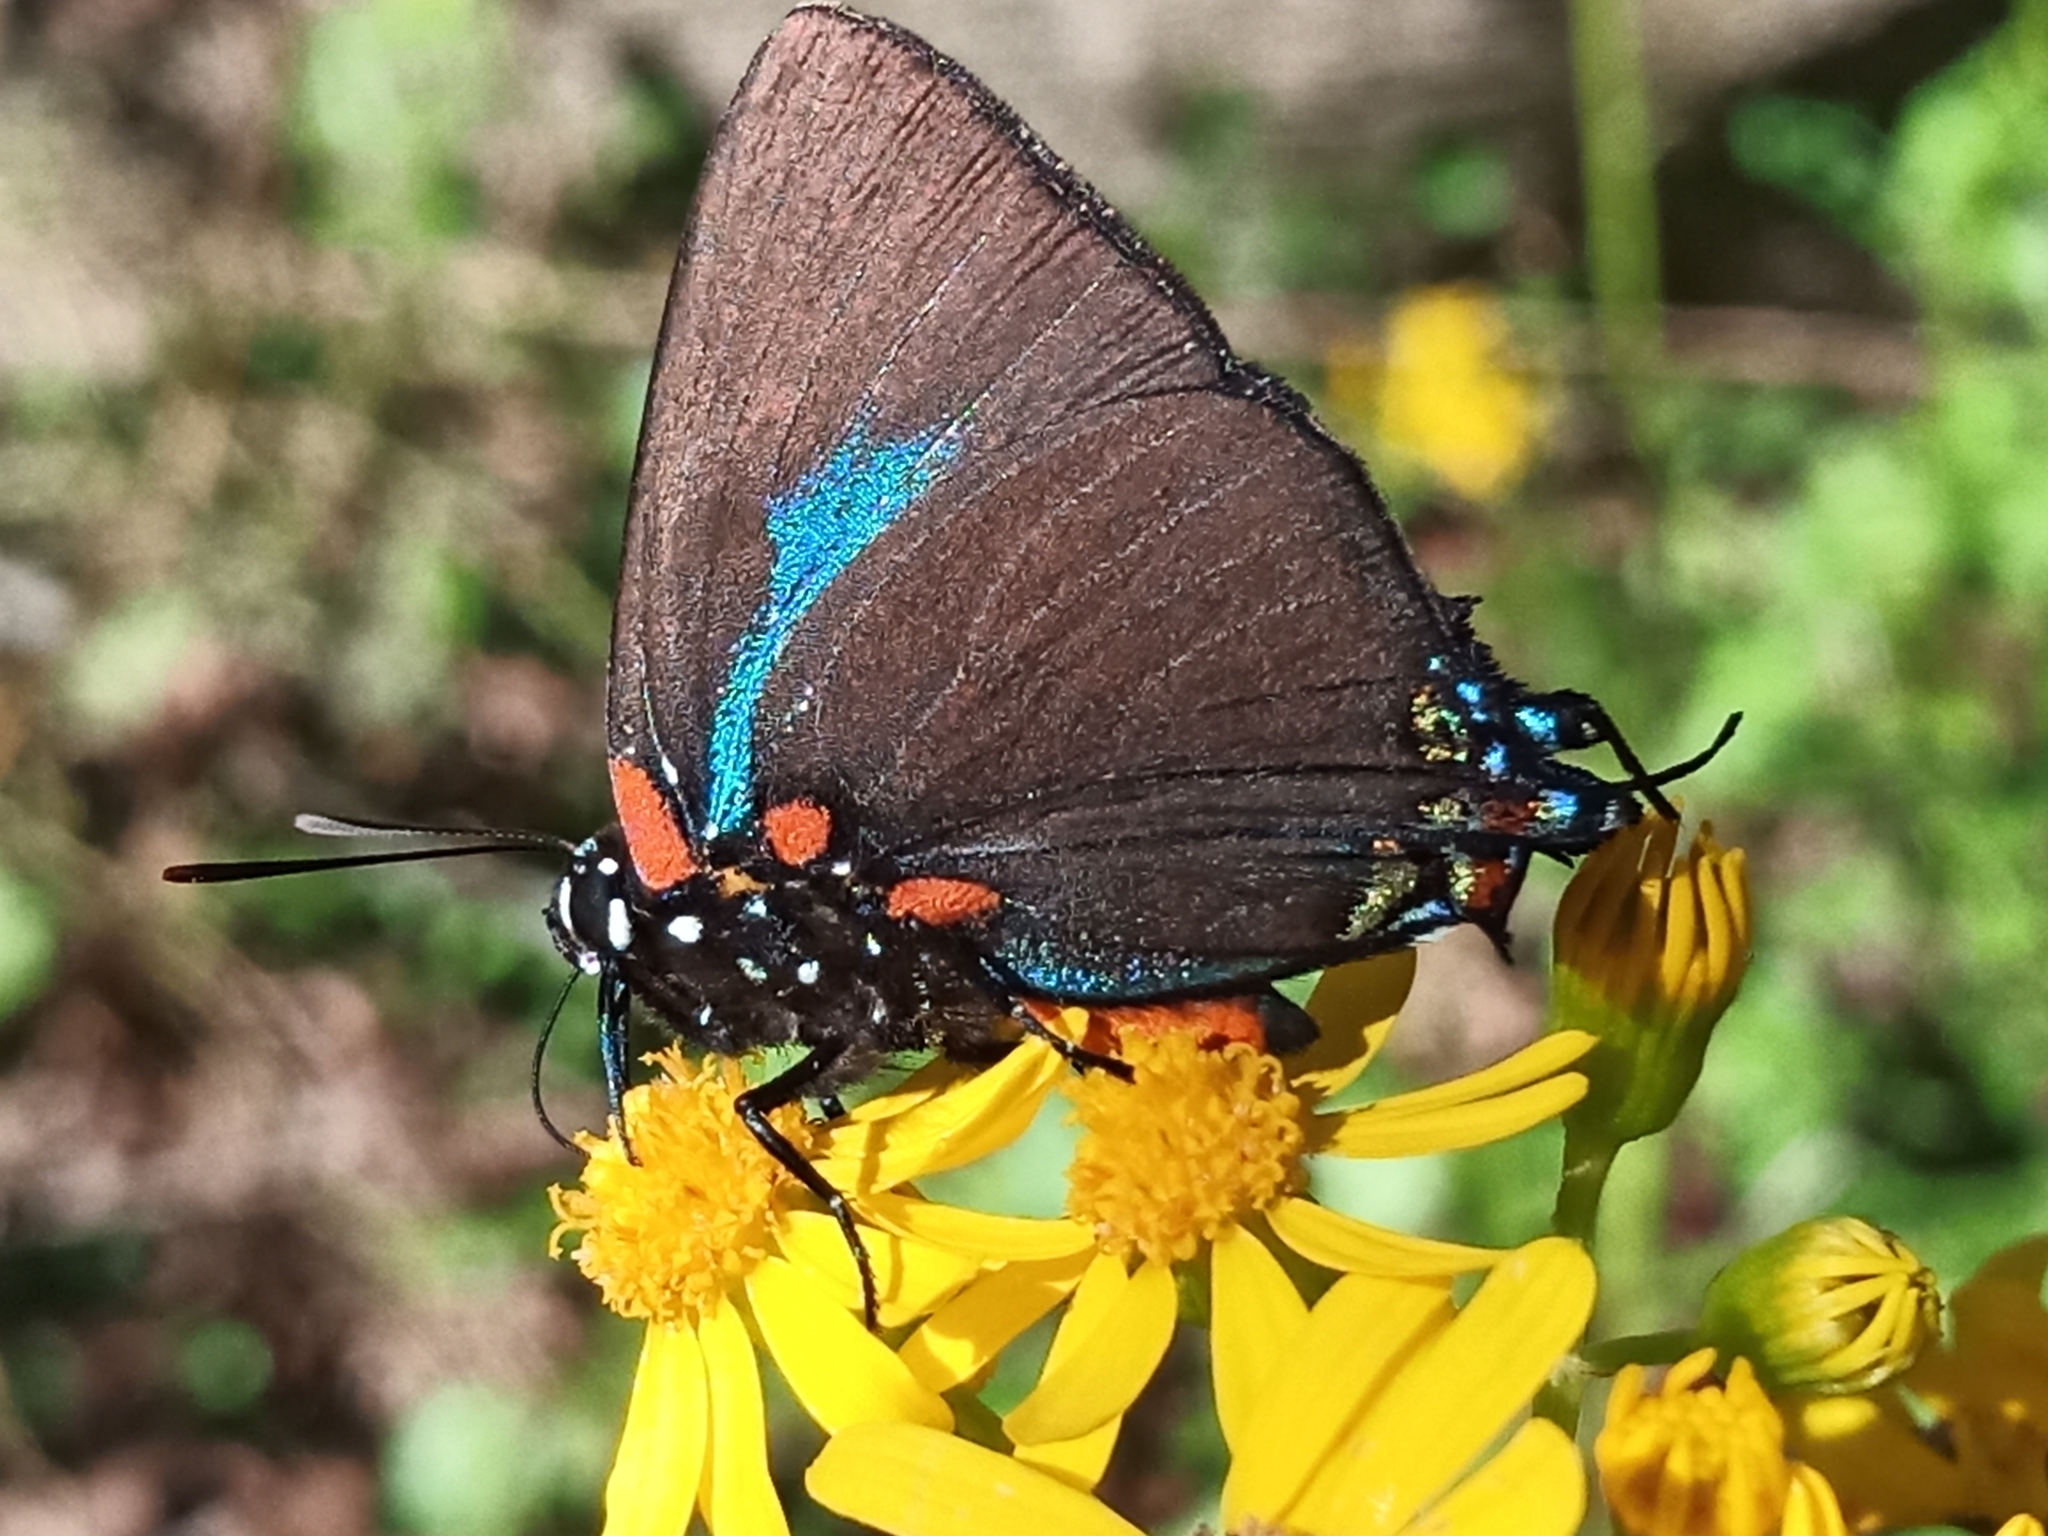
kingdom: Animalia
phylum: Arthropoda
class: Insecta
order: Lepidoptera
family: Lycaenidae
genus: Atlides
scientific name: Atlides halesus
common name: Great purple hairstreak
